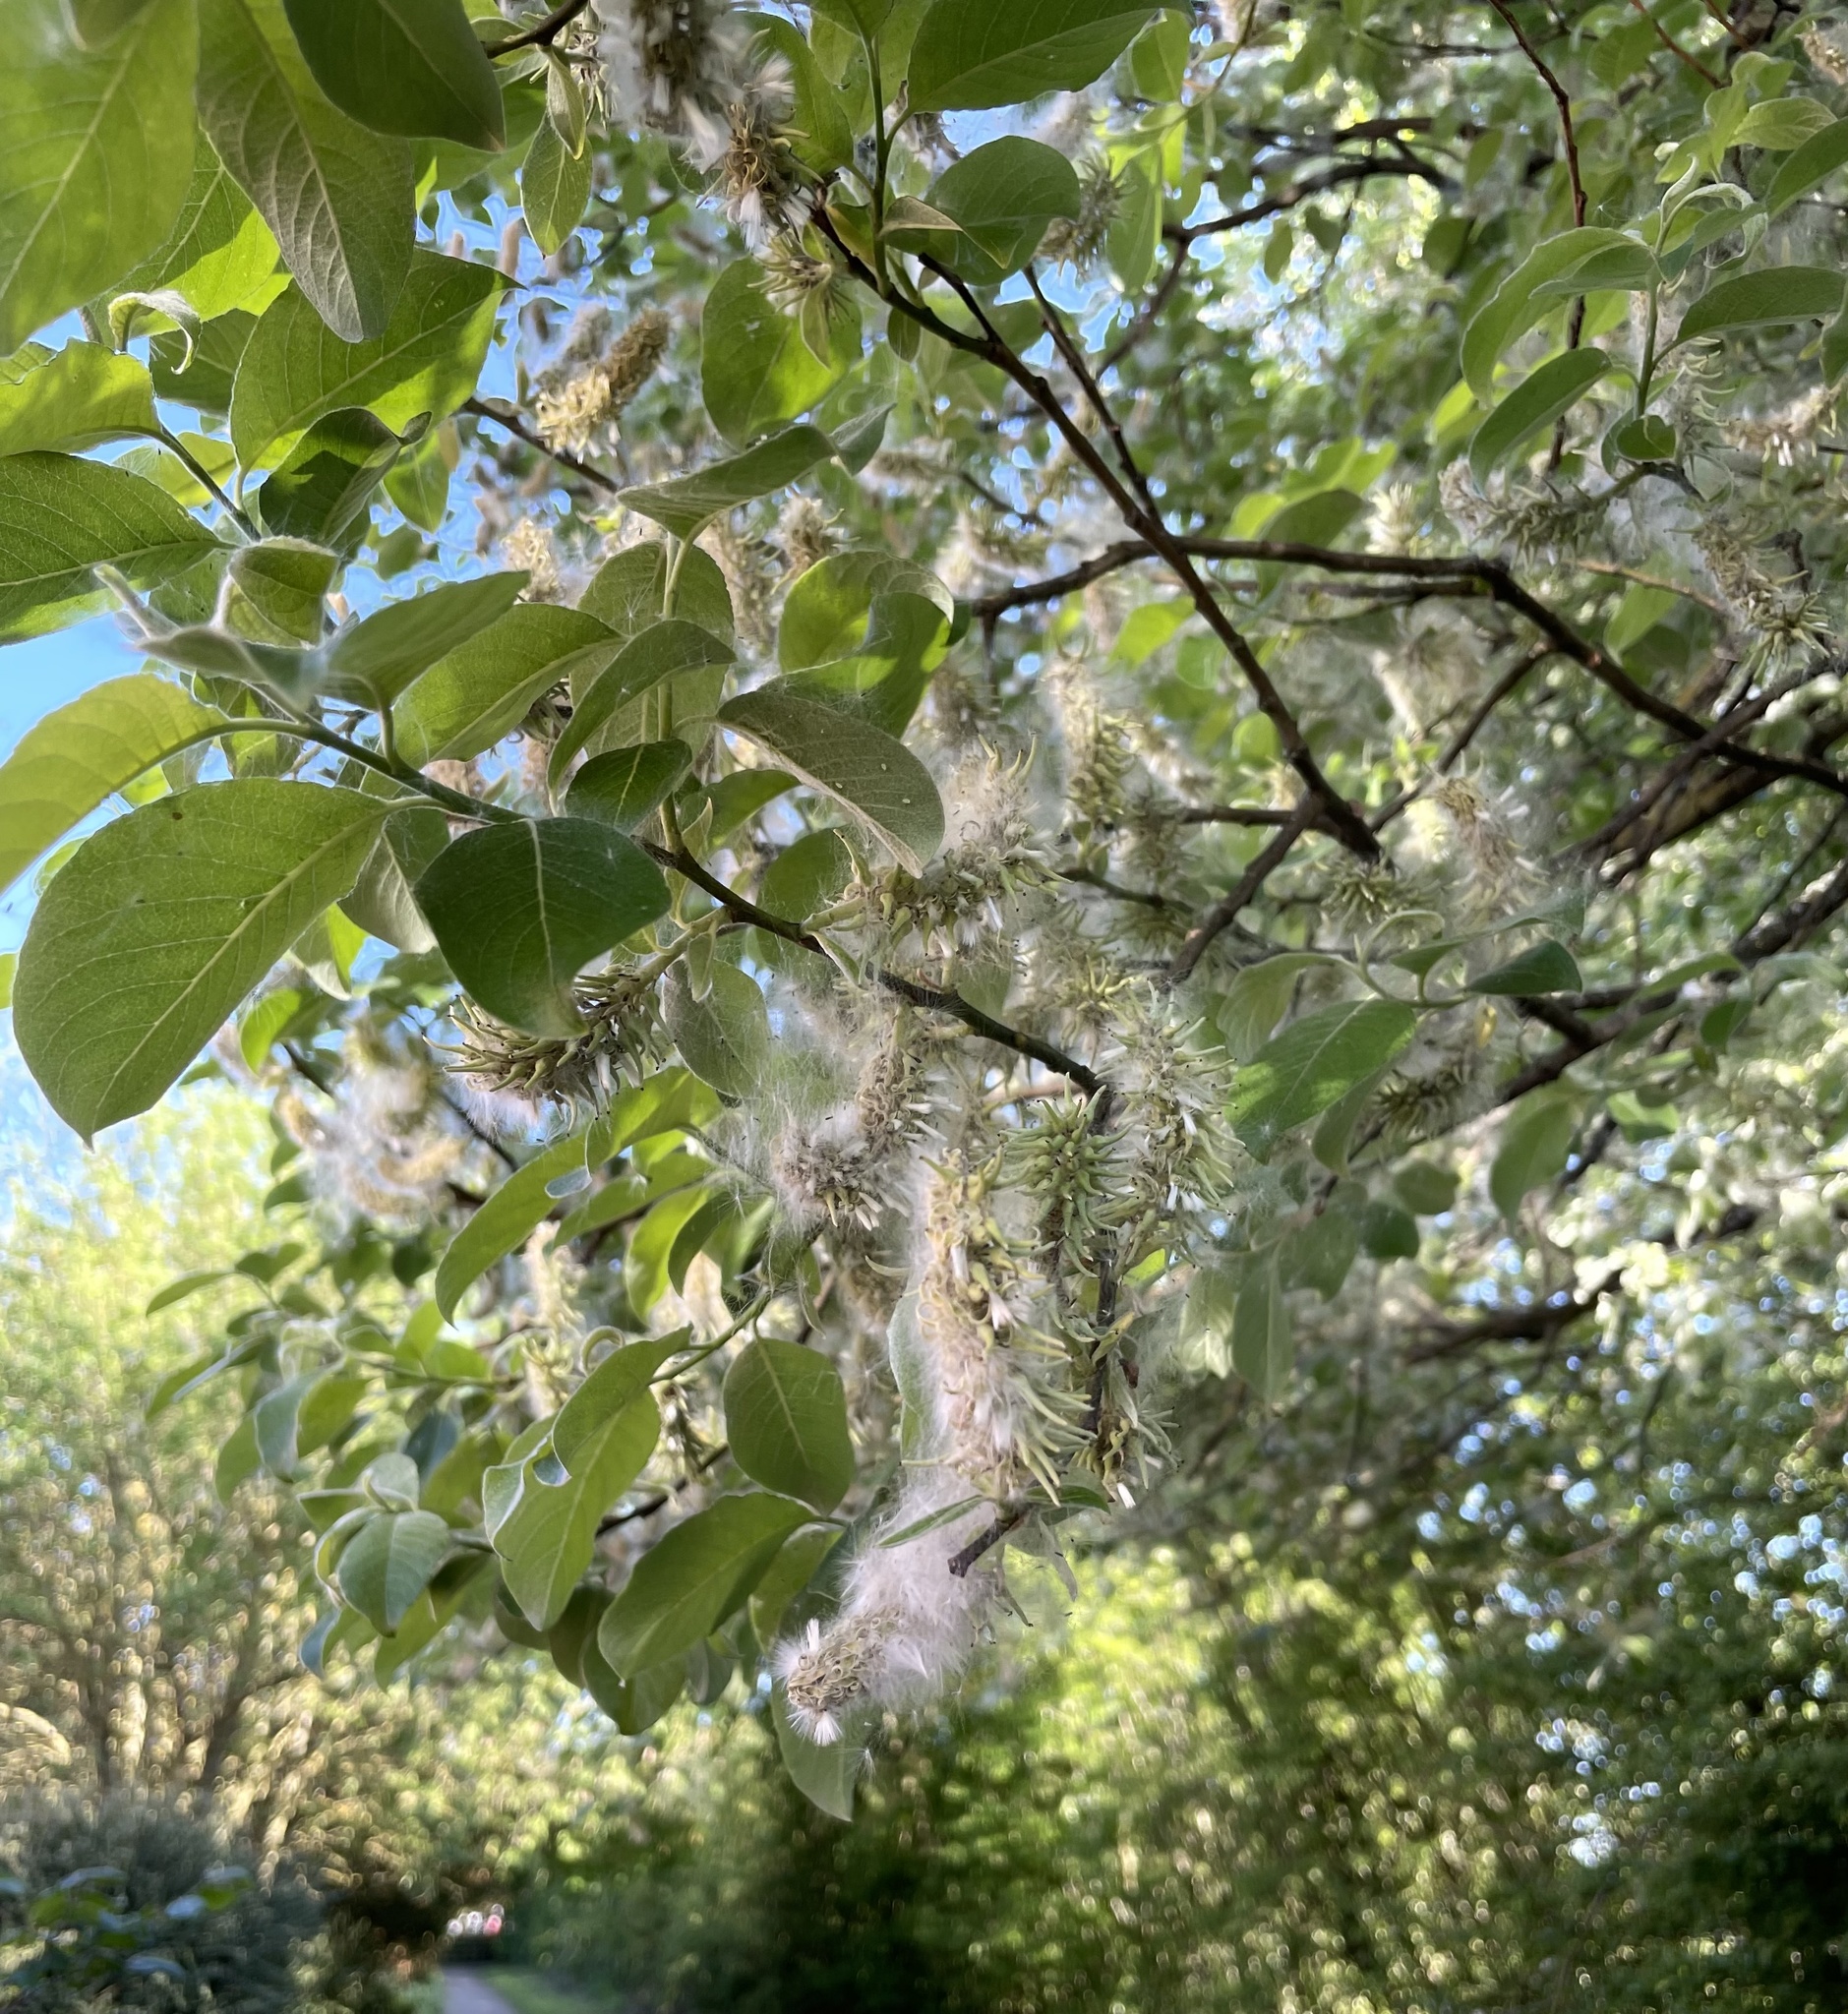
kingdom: Plantae
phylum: Tracheophyta
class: Magnoliopsida
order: Malpighiales
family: Salicaceae
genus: Salix
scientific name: Salix caprea
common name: Goat willow
